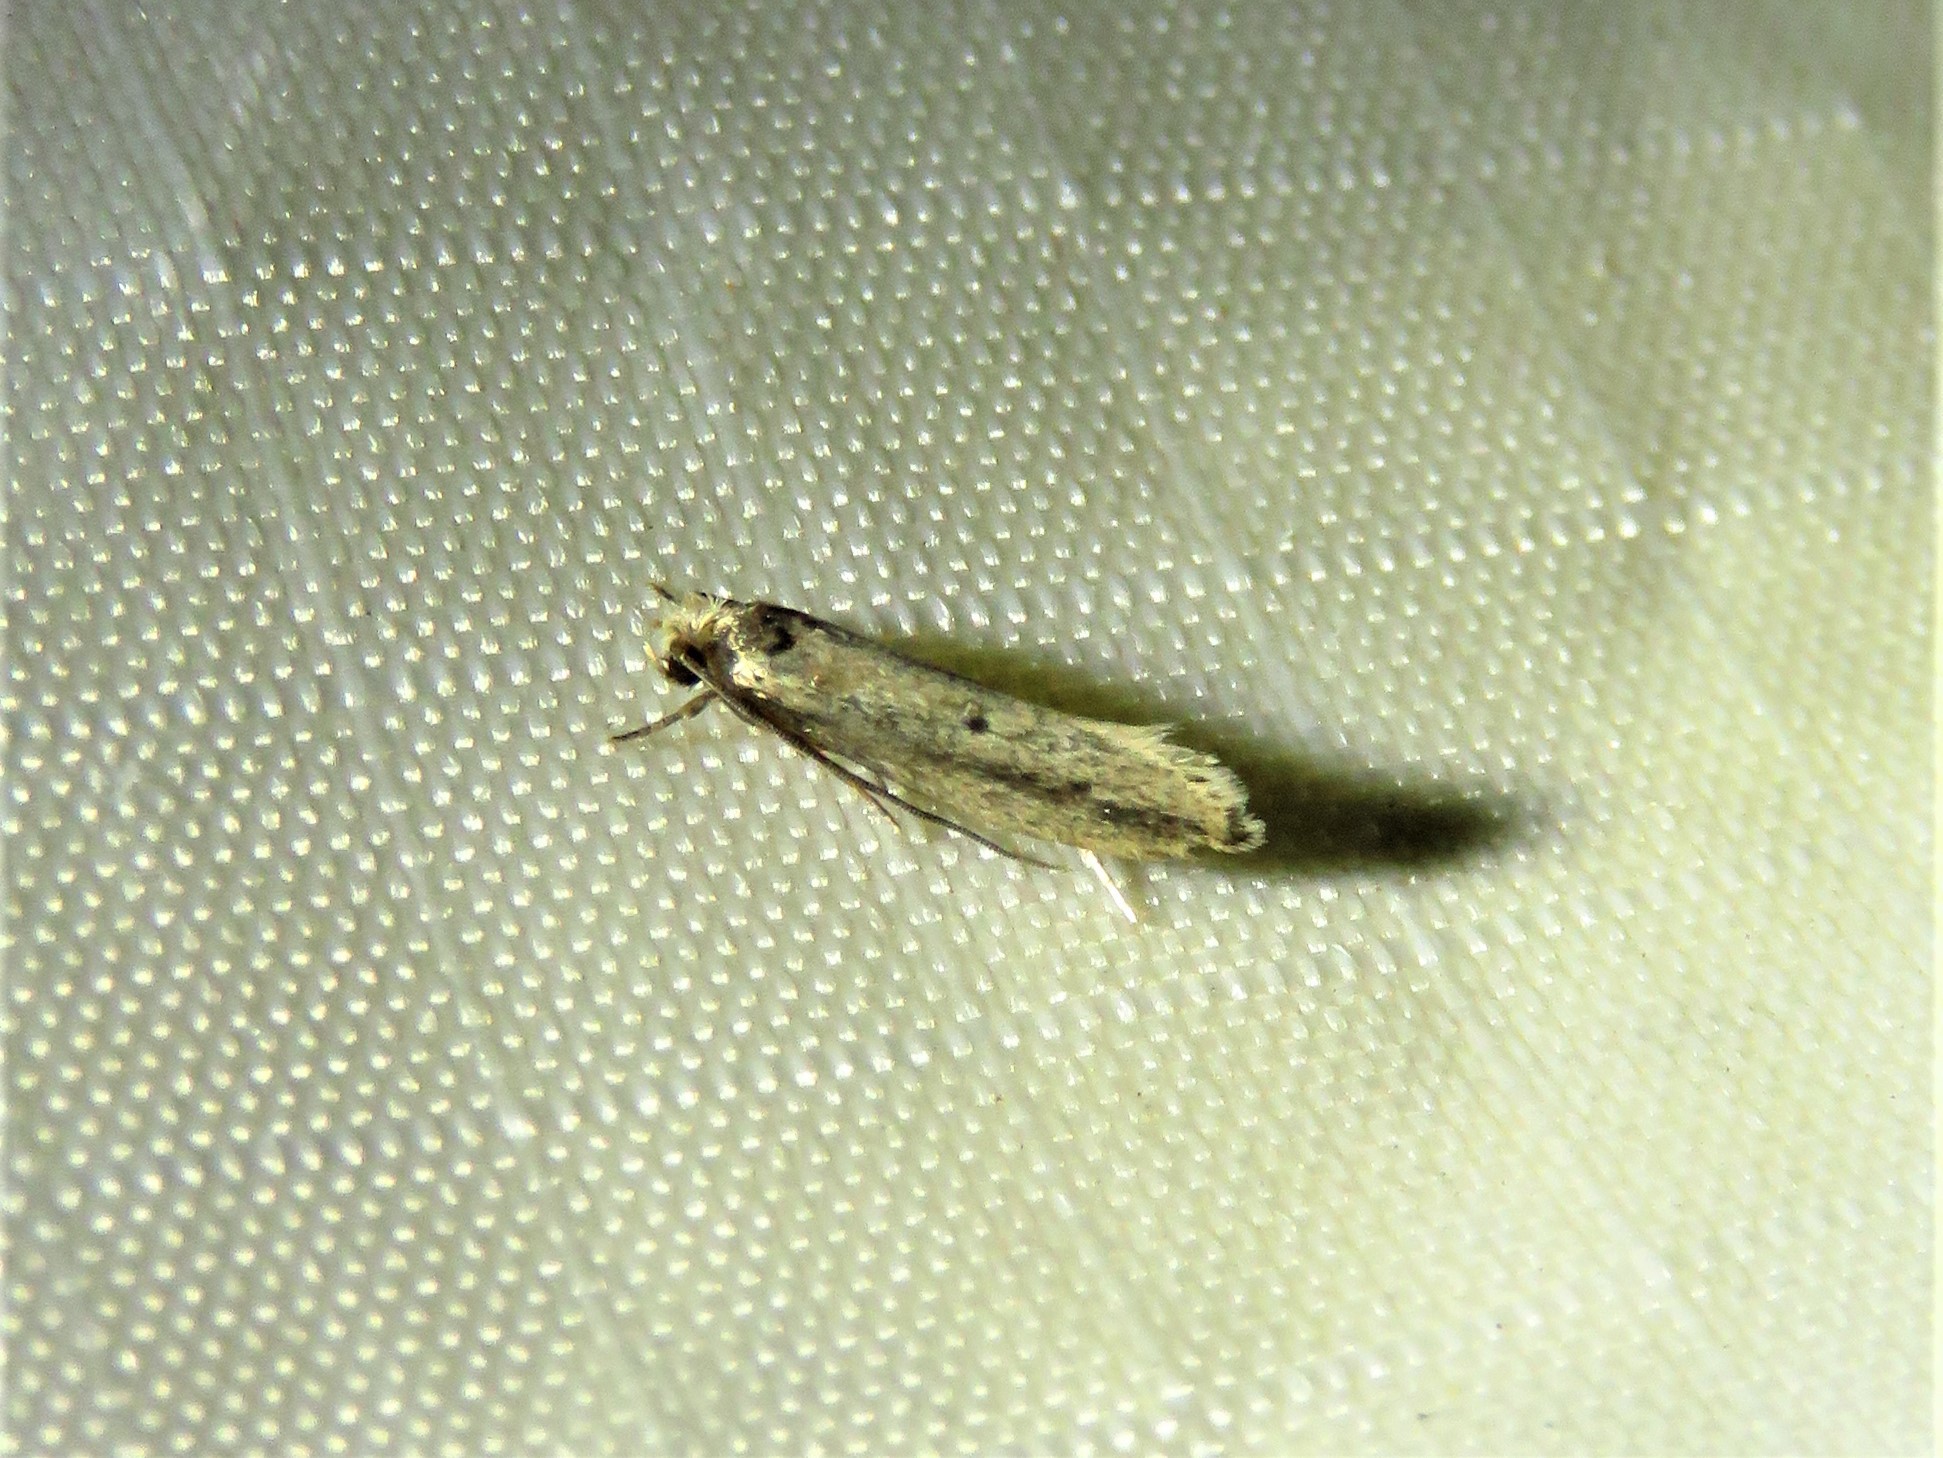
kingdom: Animalia
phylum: Arthropoda
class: Insecta
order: Lepidoptera
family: Tineidae
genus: Tinea
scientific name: Tinea apicimaculella
